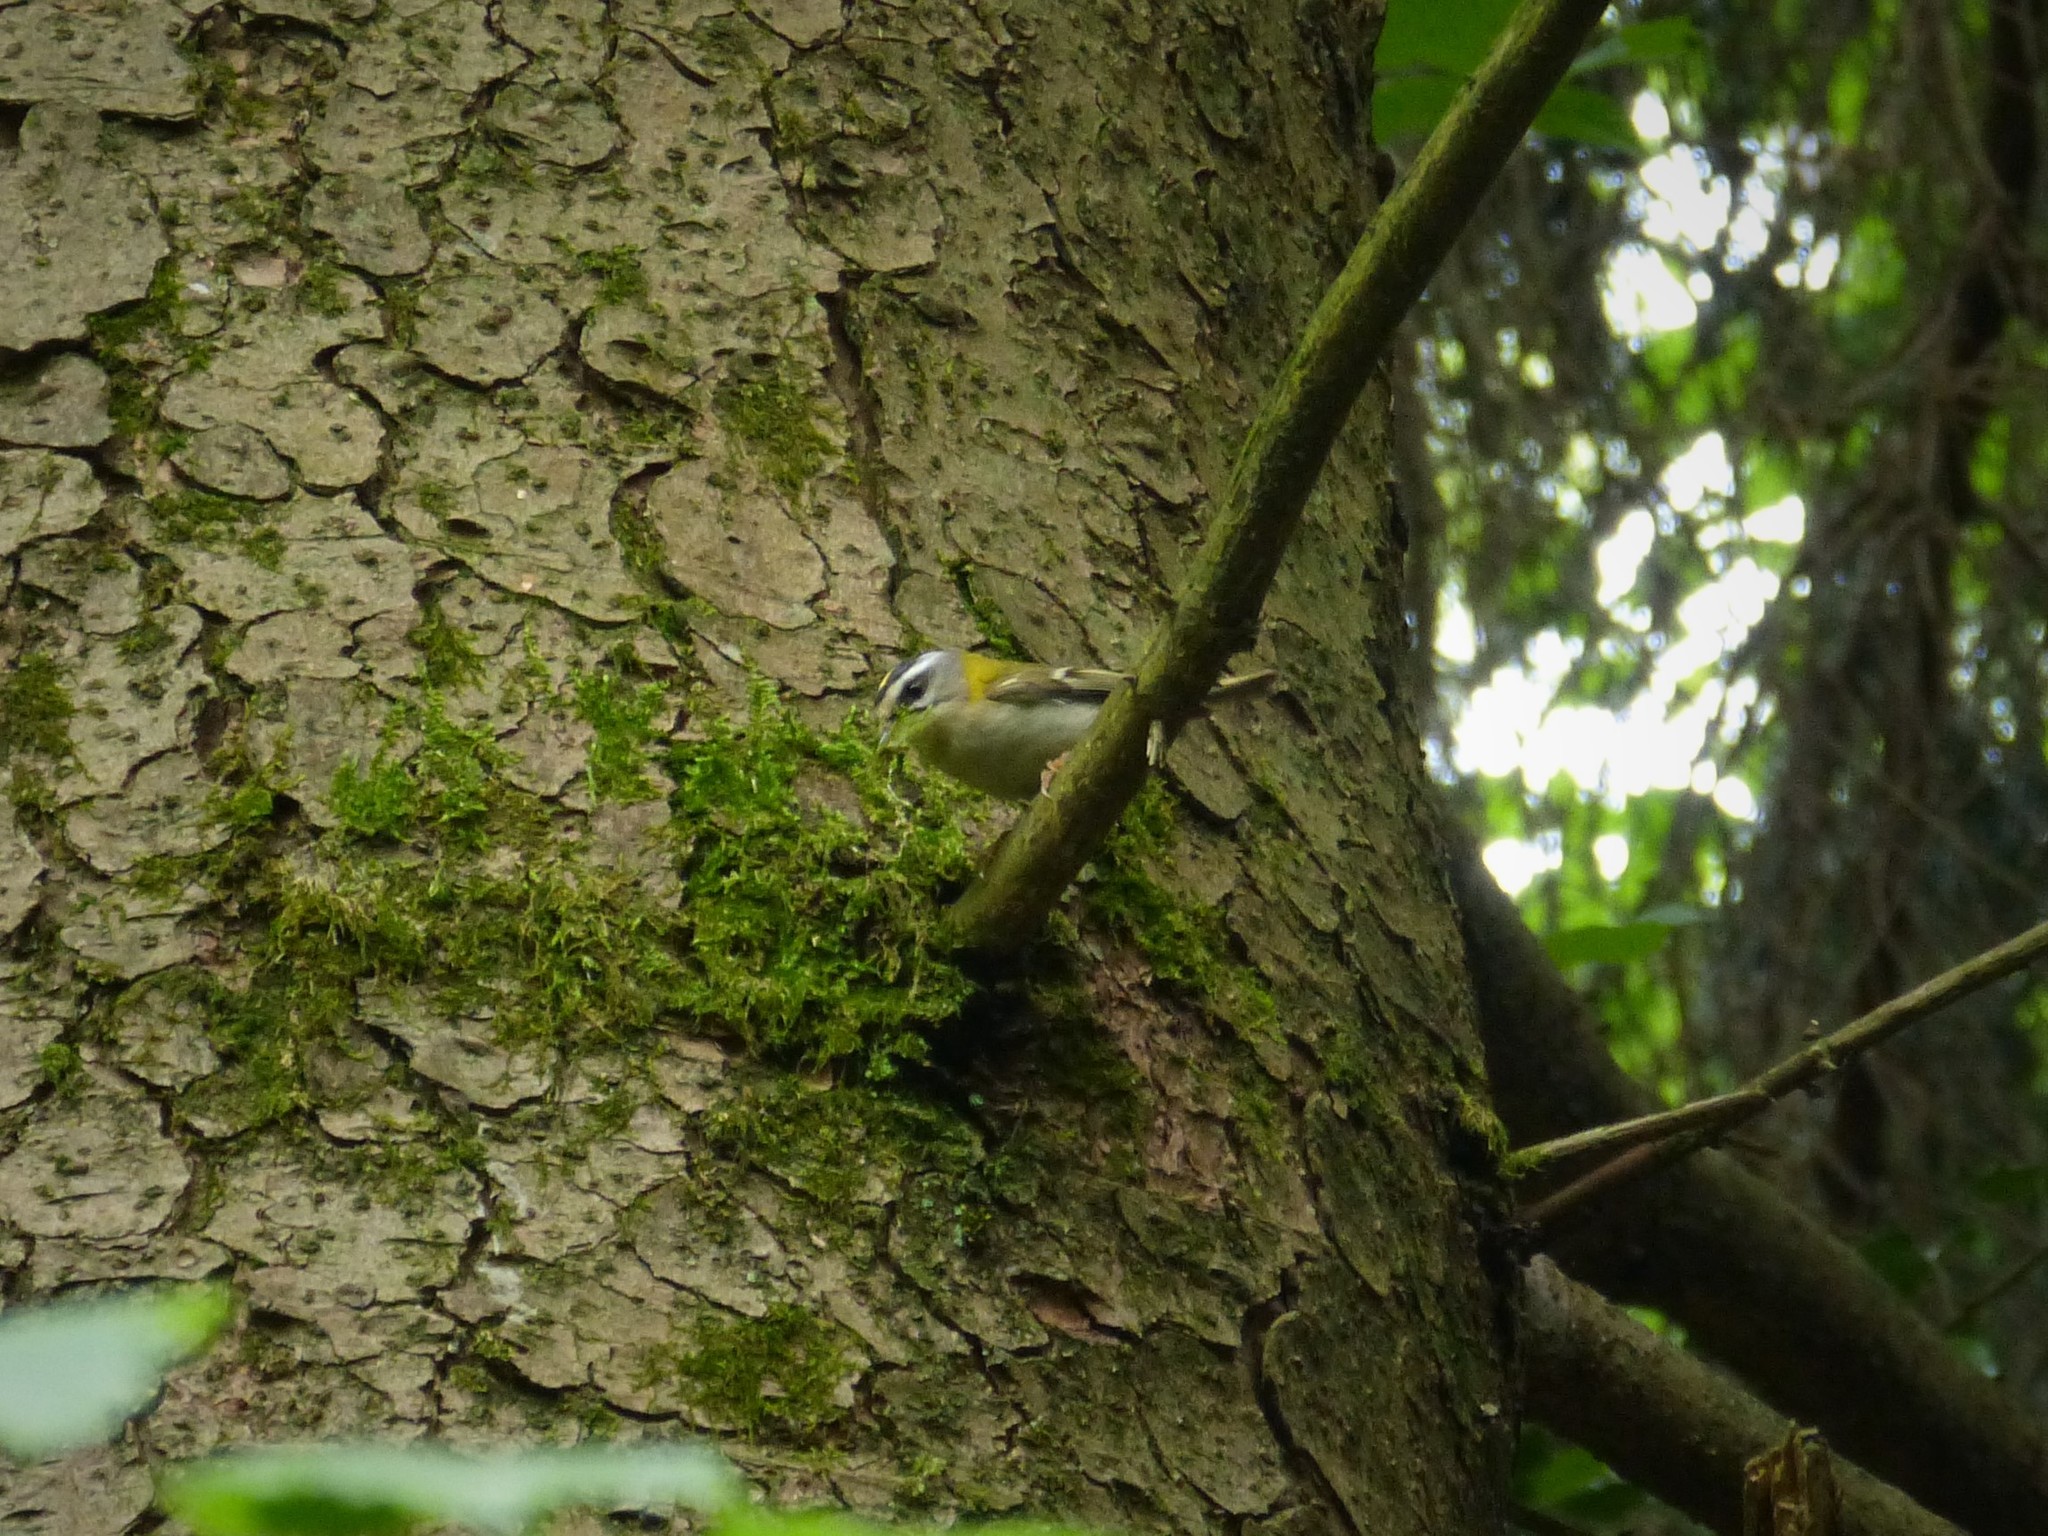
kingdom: Animalia
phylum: Chordata
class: Aves
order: Passeriformes
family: Regulidae
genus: Regulus
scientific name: Regulus ignicapilla
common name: Firecrest
